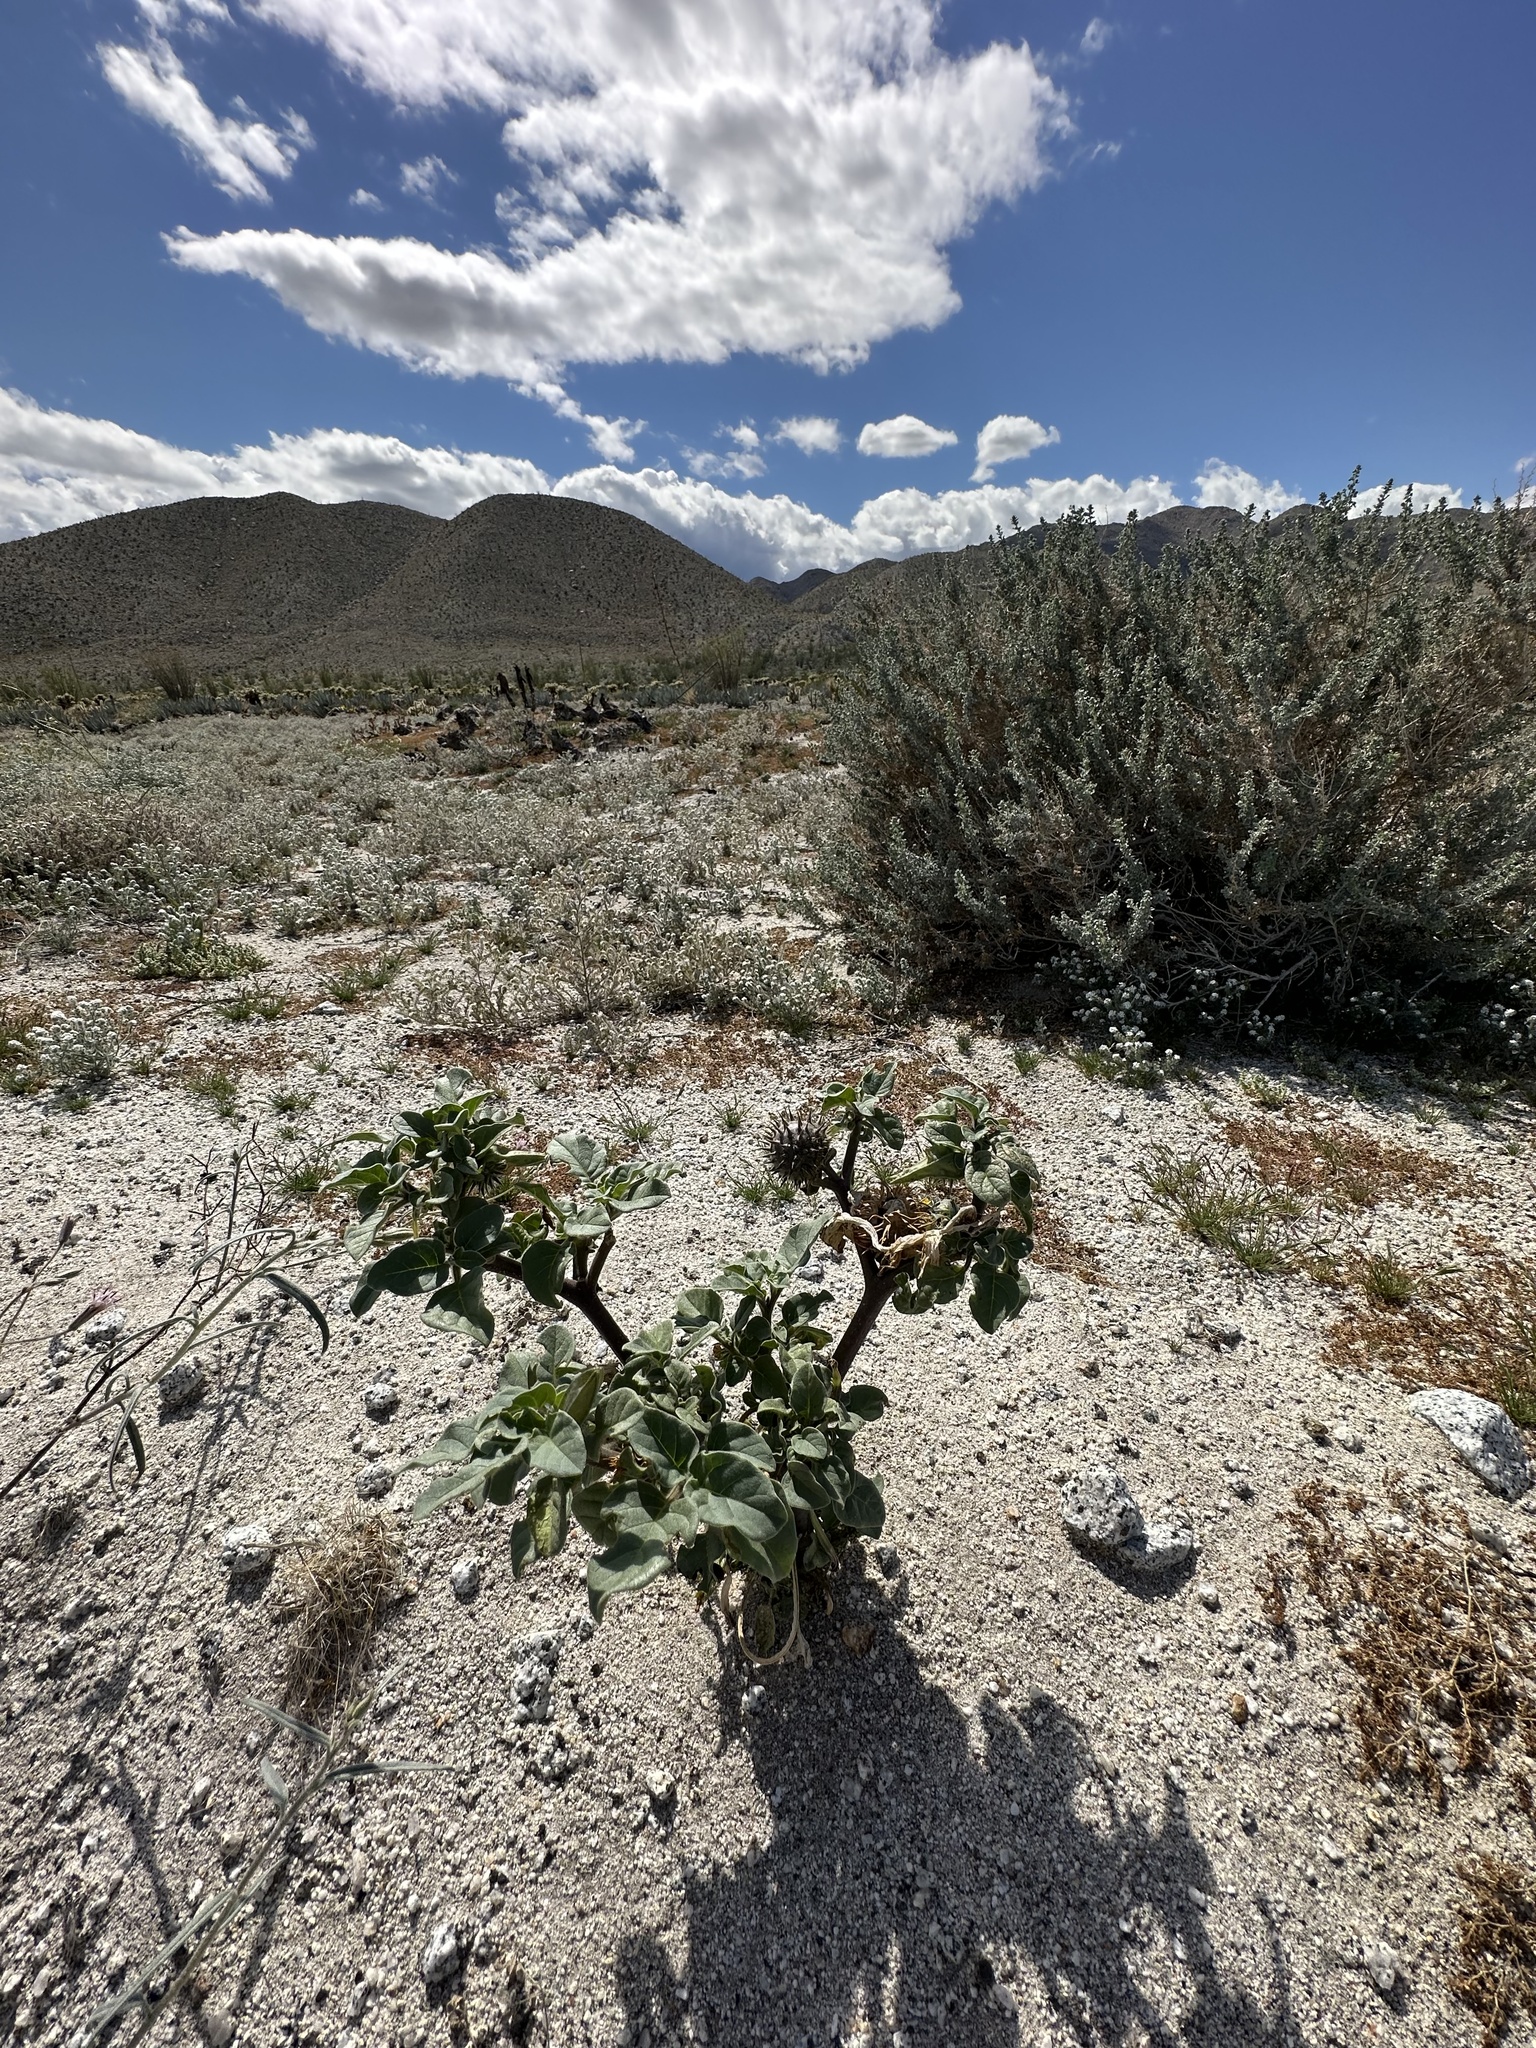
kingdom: Plantae
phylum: Tracheophyta
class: Magnoliopsida
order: Solanales
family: Solanaceae
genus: Datura
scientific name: Datura discolor
